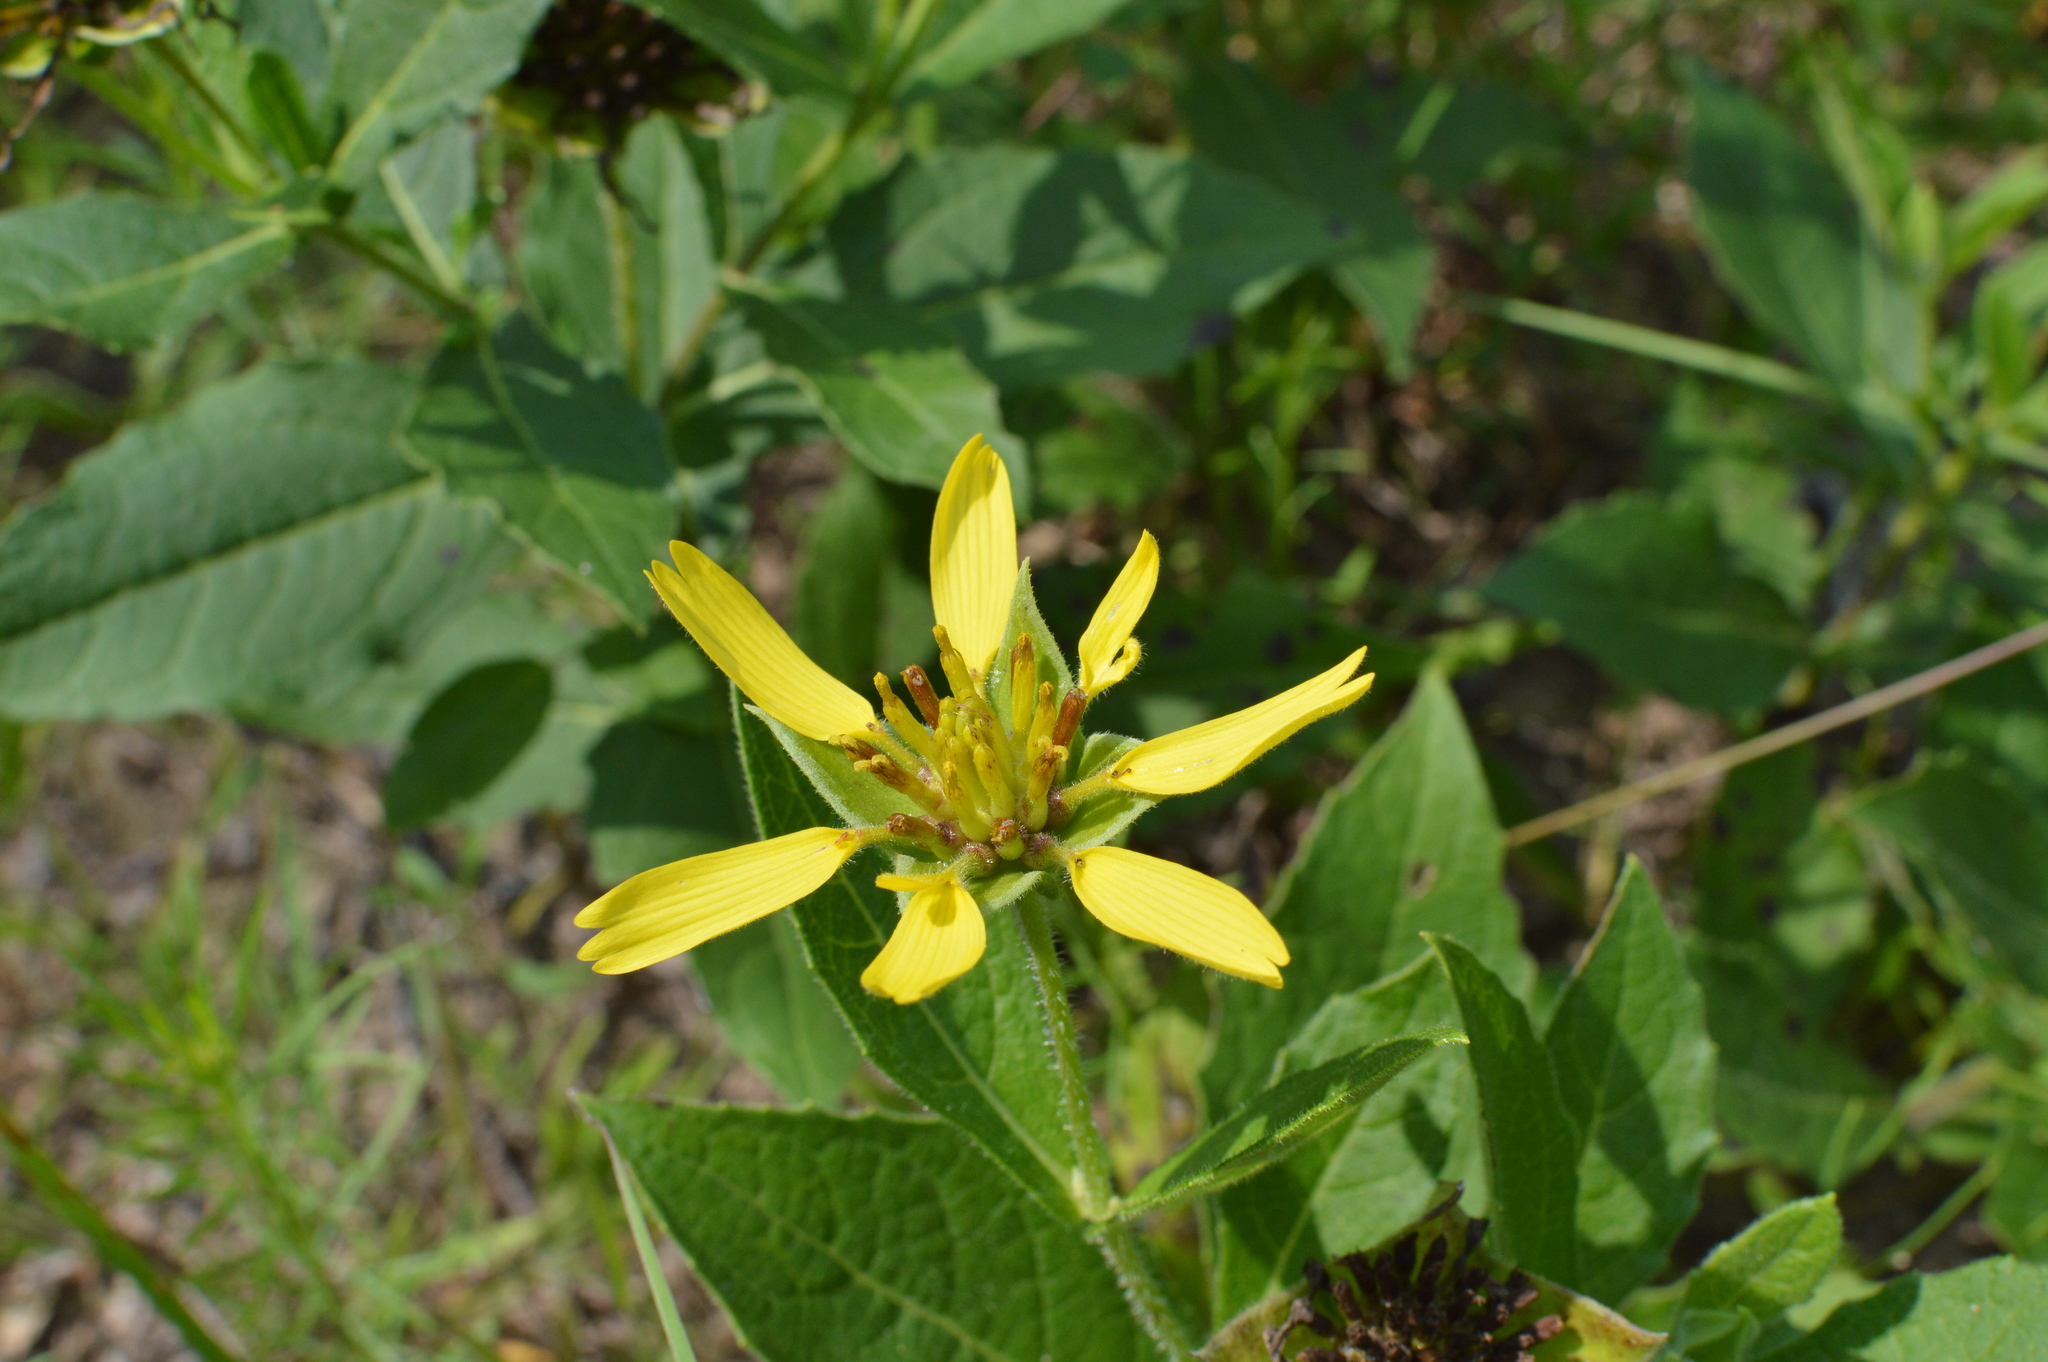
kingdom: Plantae
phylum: Tracheophyta
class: Magnoliopsida
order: Asterales
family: Asteraceae
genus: Tetragonotheca
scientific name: Tetragonotheca helianthoides
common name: Pineland-ginseng
